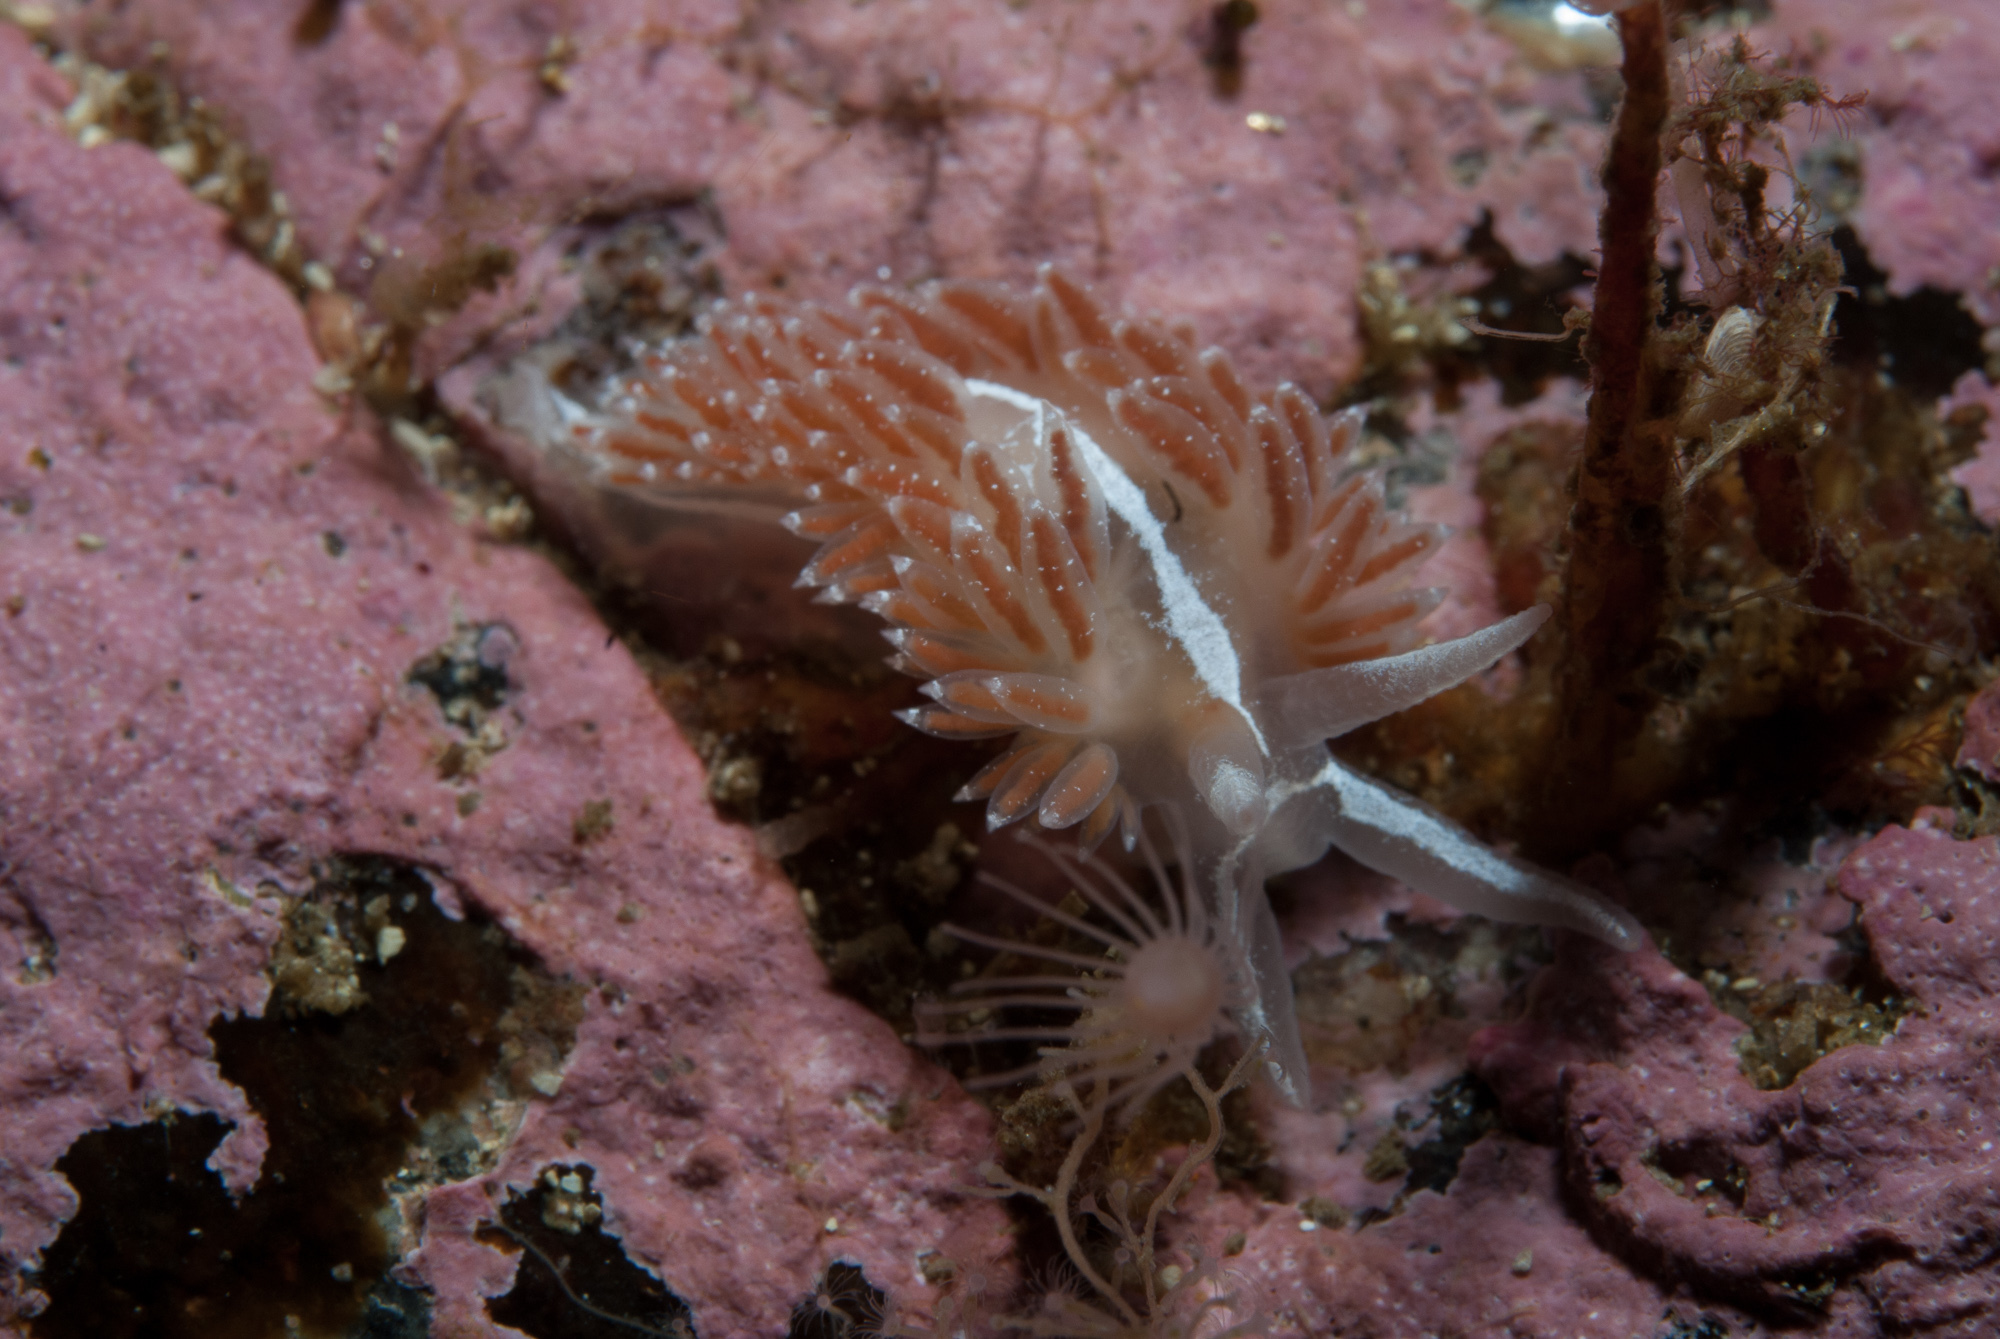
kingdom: Animalia
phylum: Mollusca
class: Gastropoda
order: Nudibranchia
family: Coryphellidae
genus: Coryphella
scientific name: Coryphella orjani
